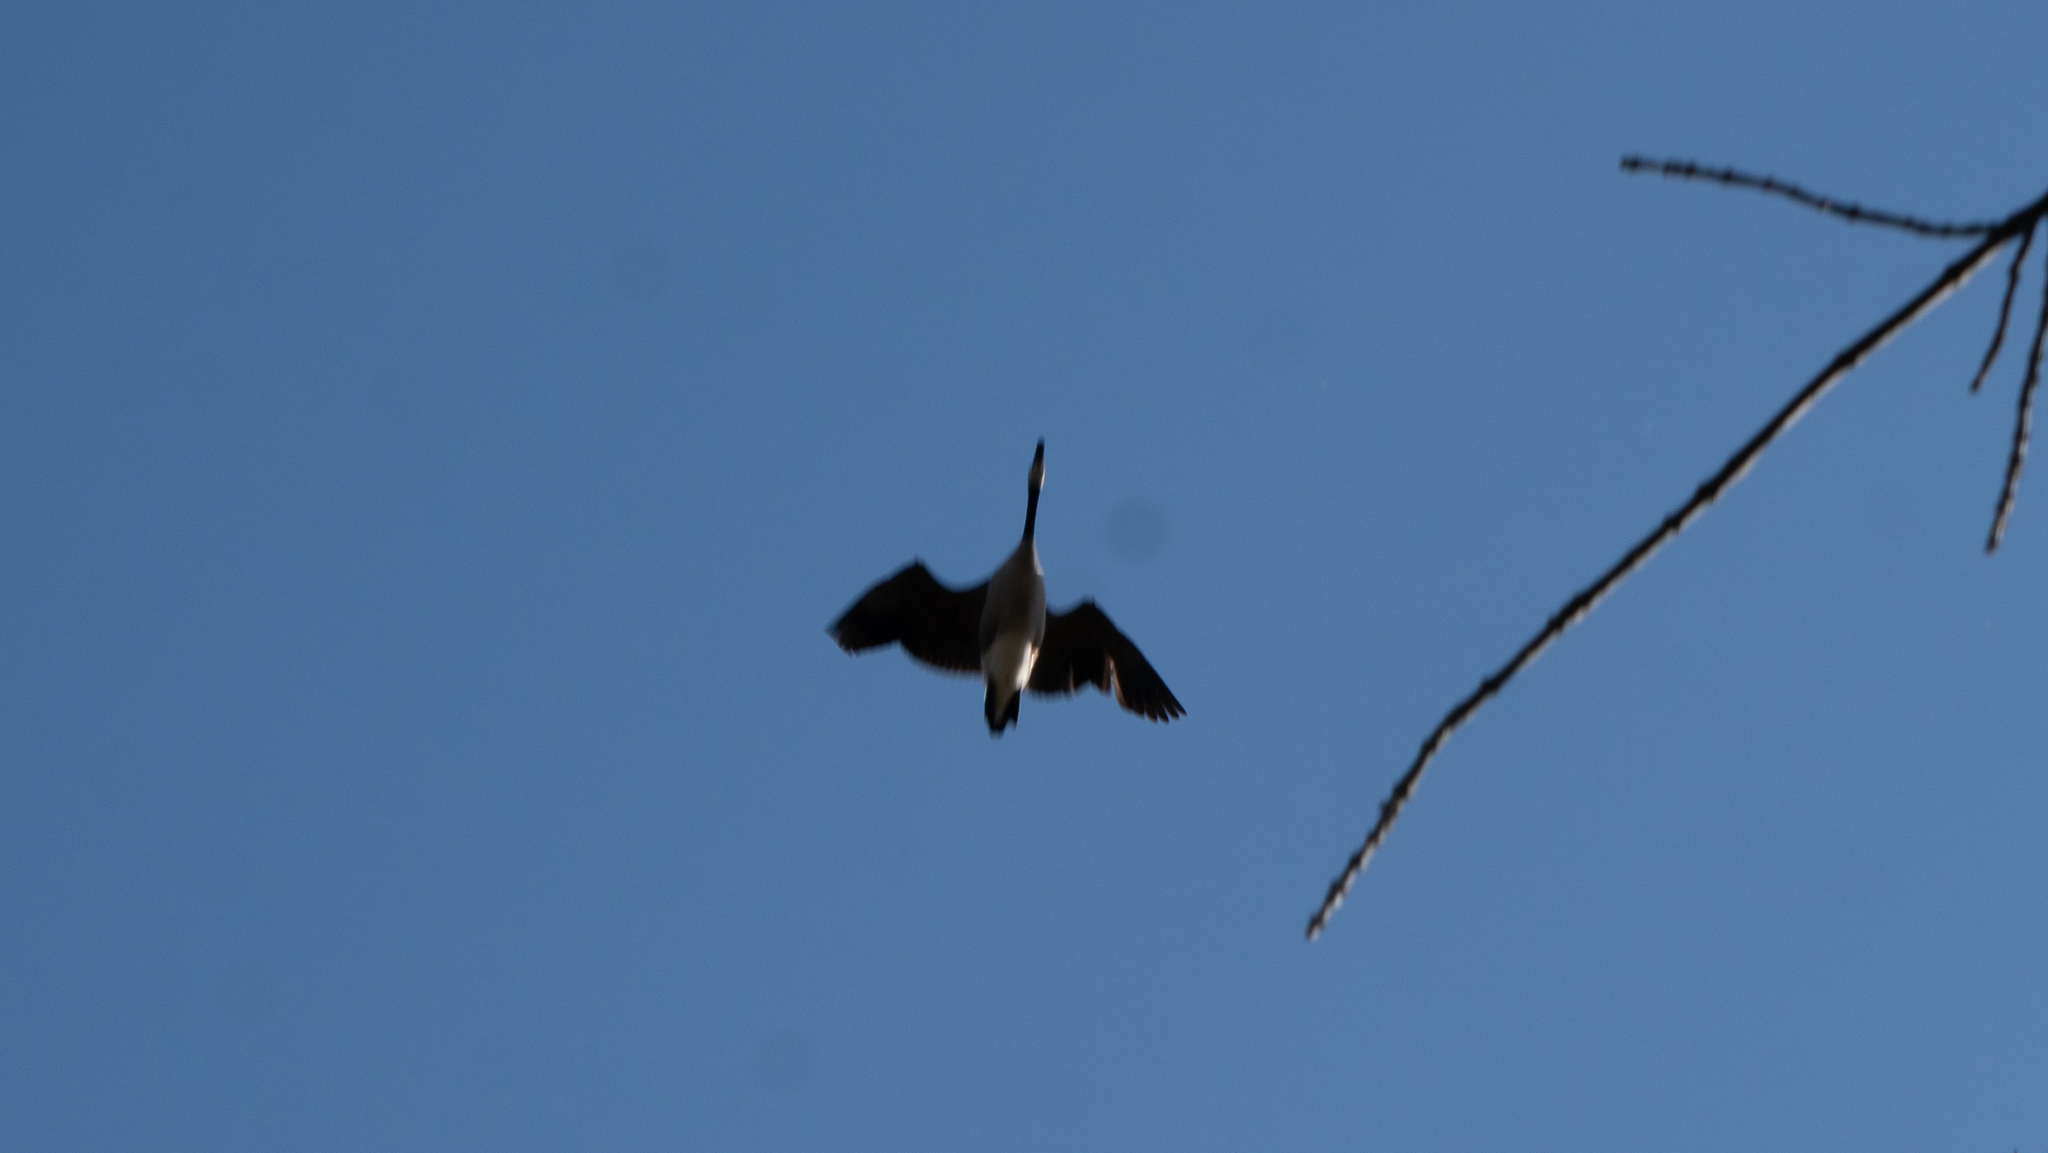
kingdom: Animalia
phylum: Chordata
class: Aves
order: Anseriformes
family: Anatidae
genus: Branta
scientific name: Branta canadensis
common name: Canada goose
